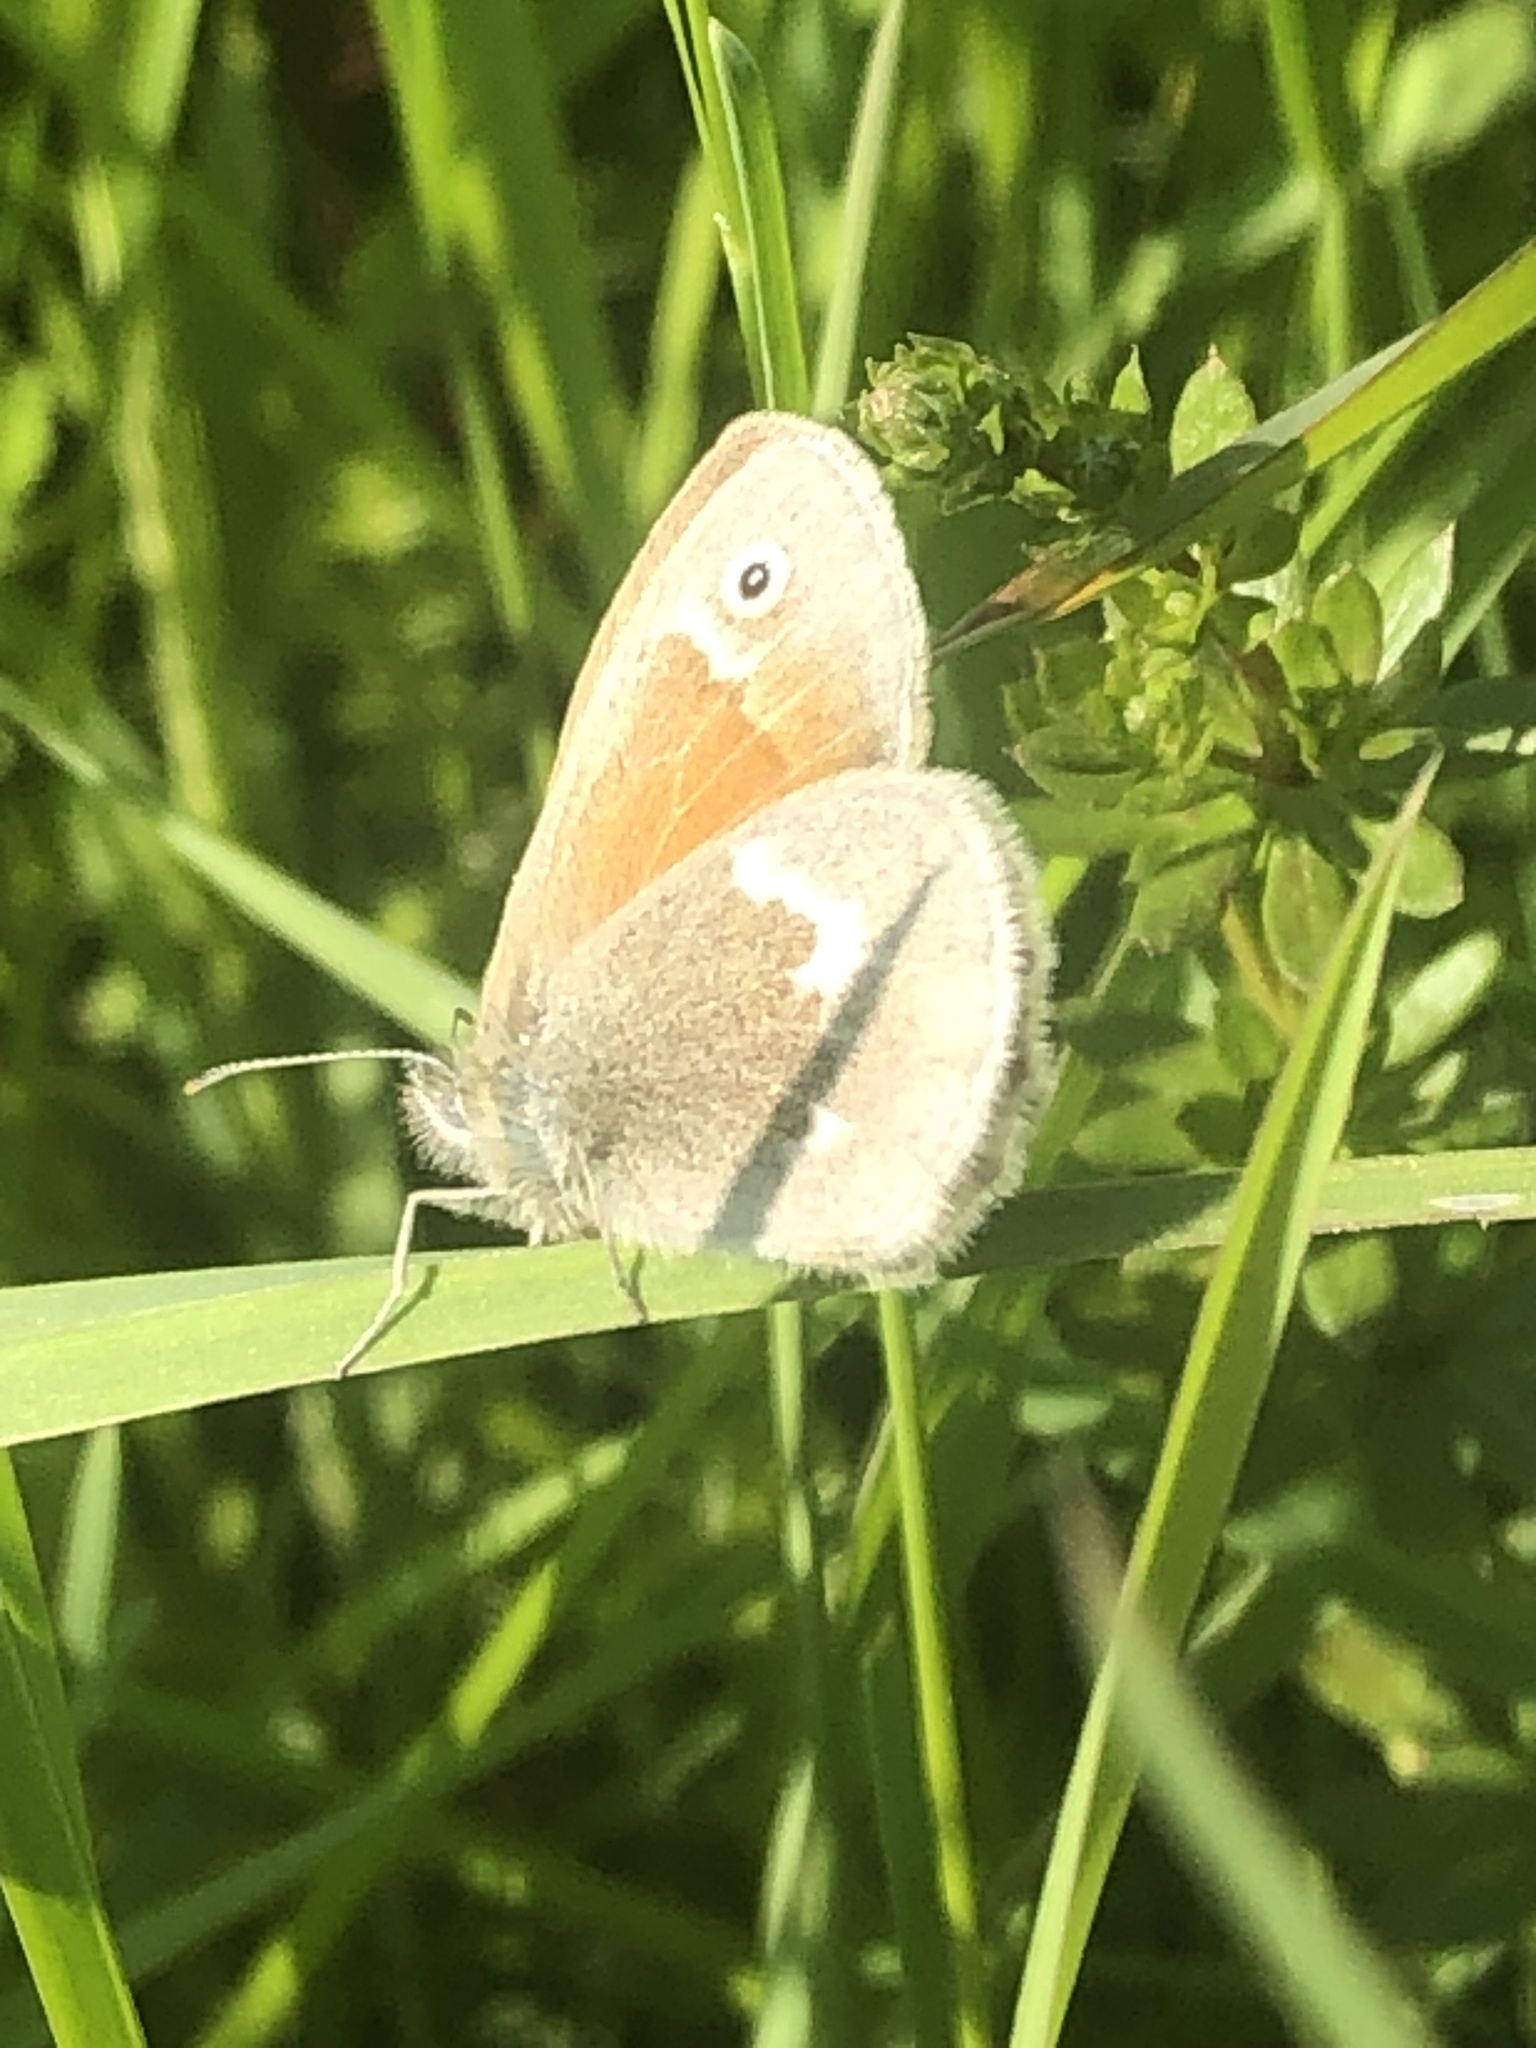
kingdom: Animalia
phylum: Arthropoda
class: Insecta
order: Lepidoptera
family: Nymphalidae
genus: Coenonympha
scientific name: Coenonympha california
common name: Common ringlet
